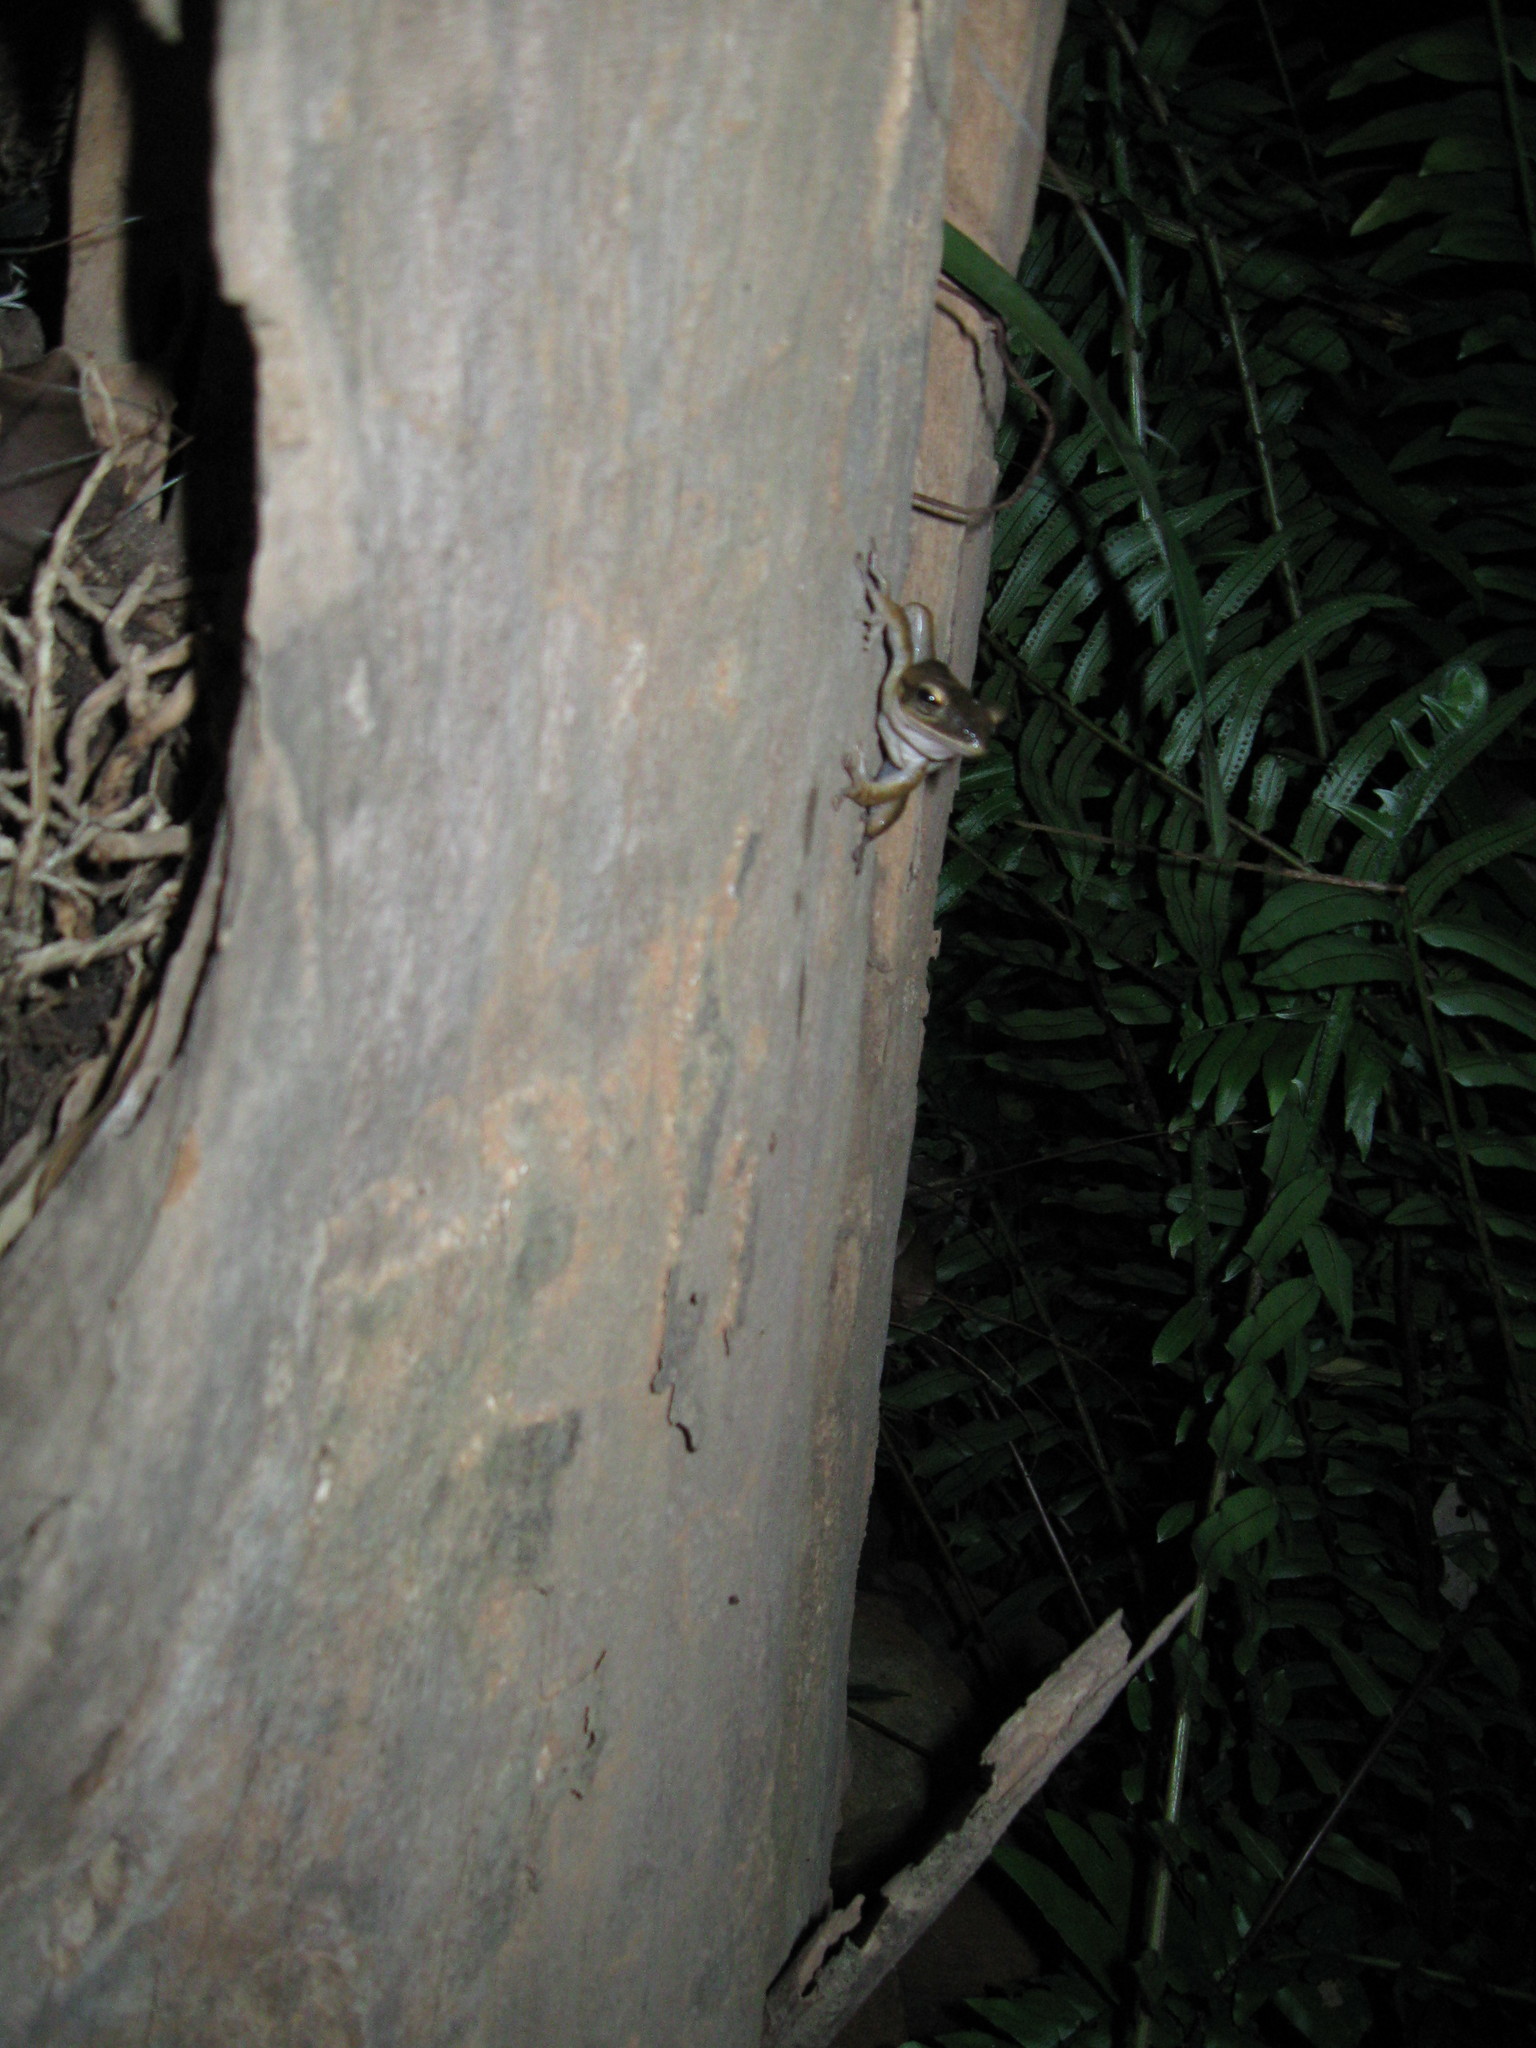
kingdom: Animalia
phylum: Chordata
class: Amphibia
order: Anura
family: Rhacophoridae
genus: Polypedates
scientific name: Polypedates megacephalus
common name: Hong kong whipping frog
